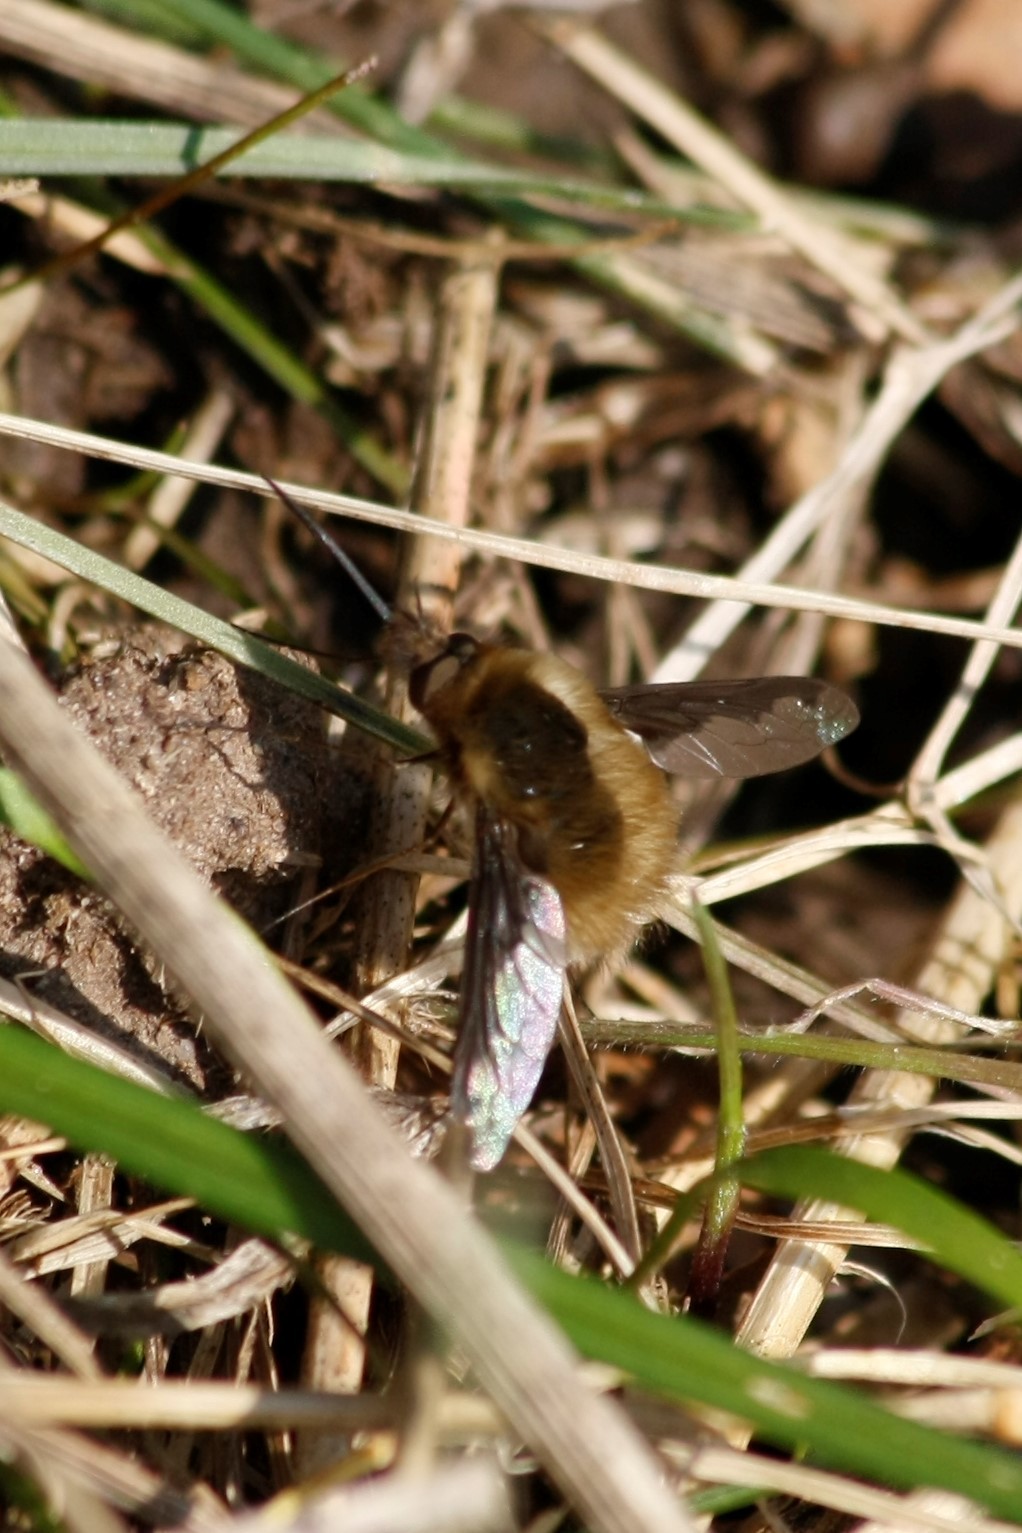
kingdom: Animalia
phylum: Arthropoda
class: Insecta
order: Diptera
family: Bombyliidae
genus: Bombylius
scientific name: Bombylius major
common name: Bee fly
